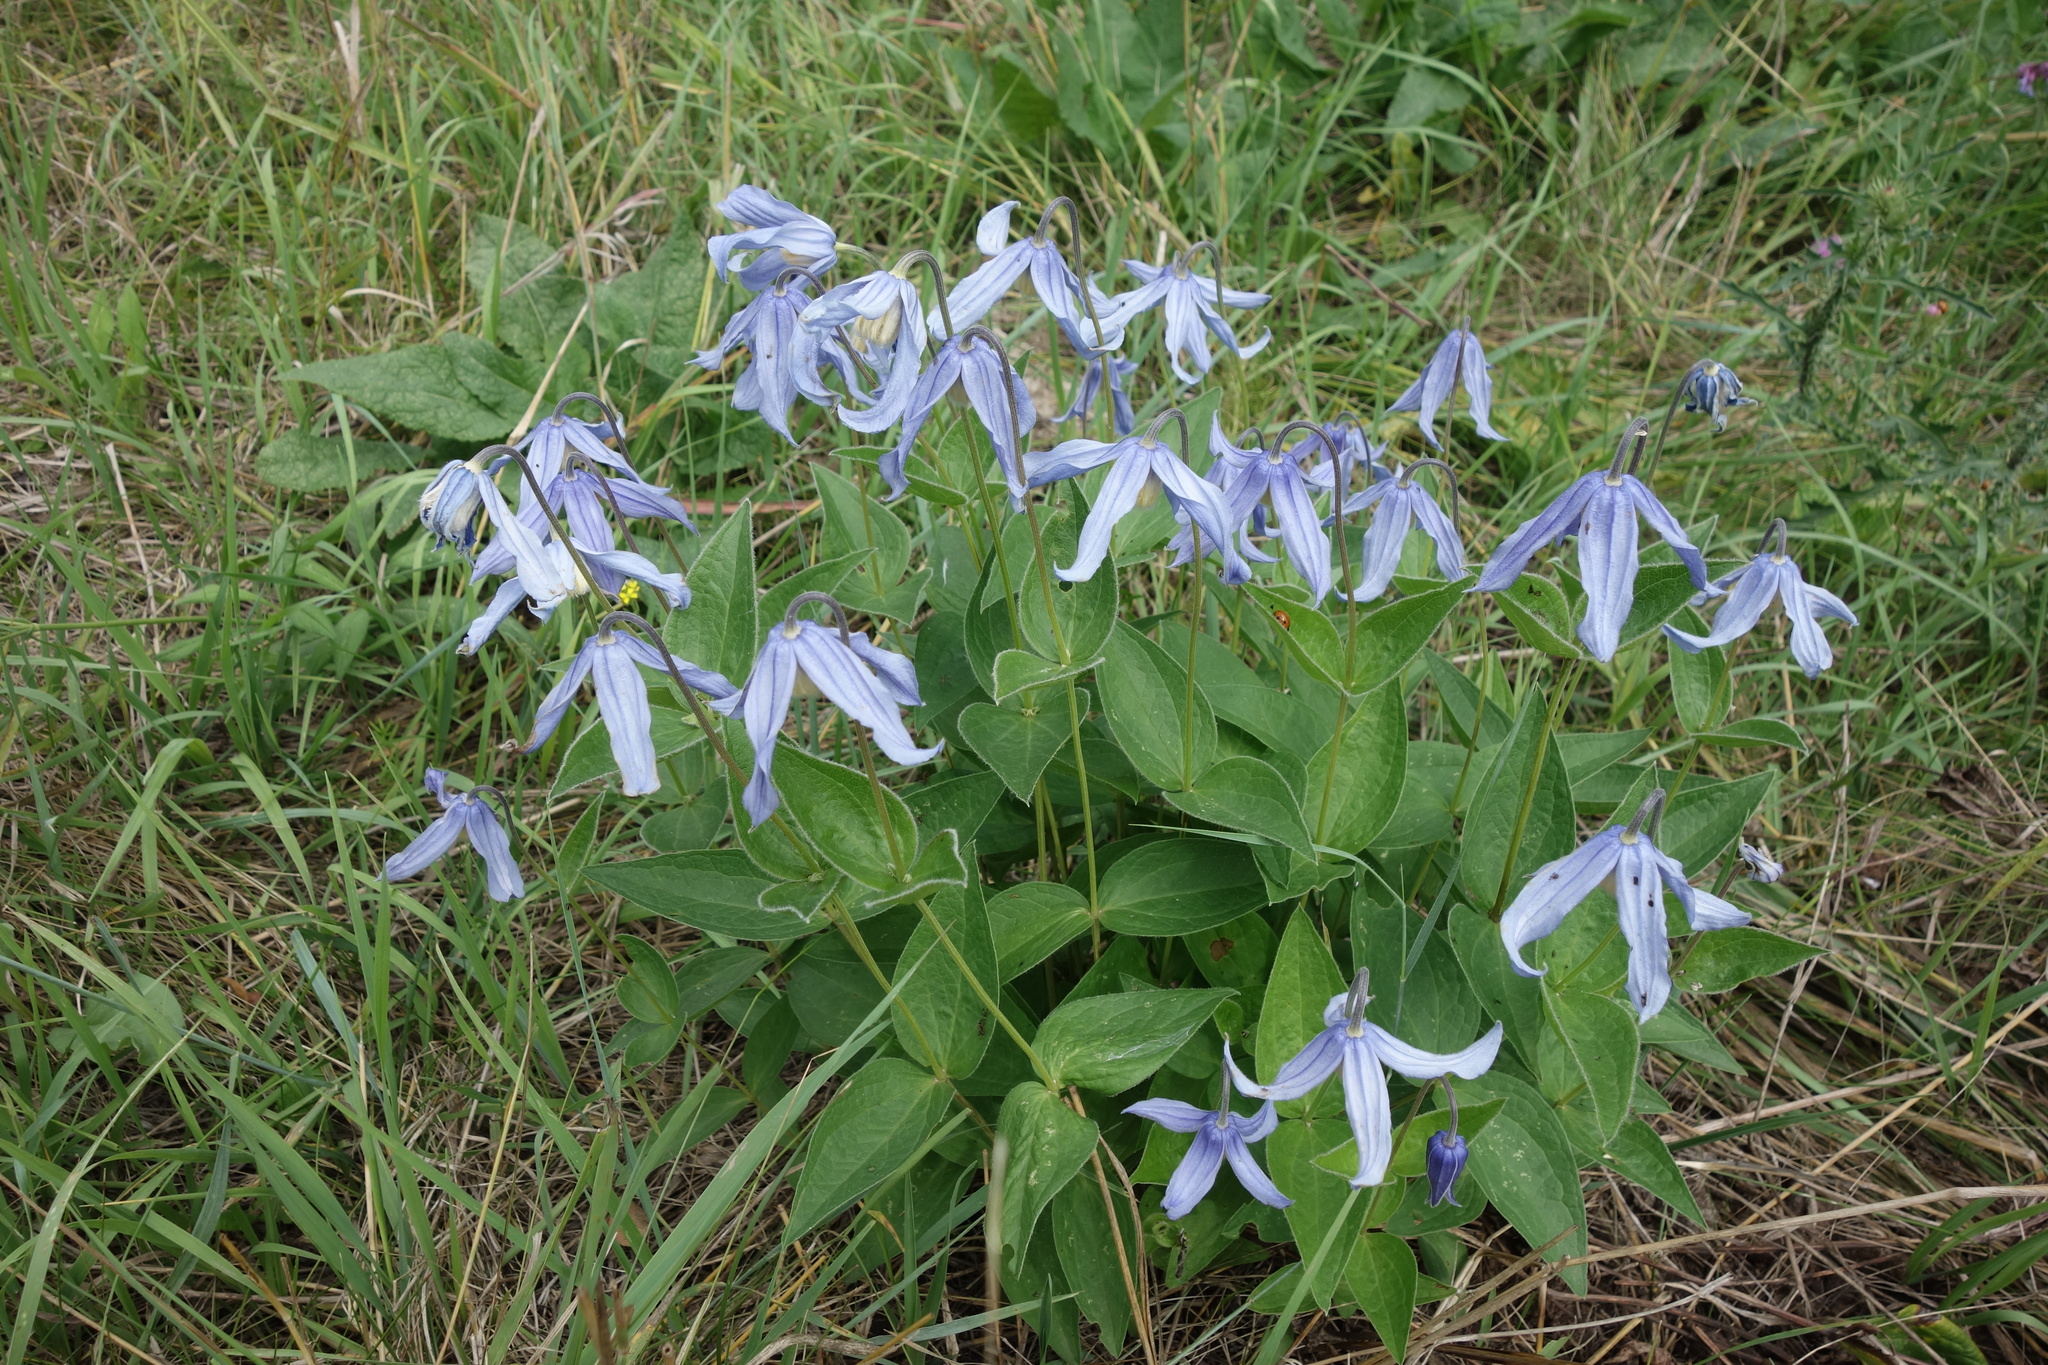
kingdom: Plantae
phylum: Tracheophyta
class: Magnoliopsida
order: Ranunculales
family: Ranunculaceae
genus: Clematis
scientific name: Clematis integrifolia
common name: Solitary clematis
